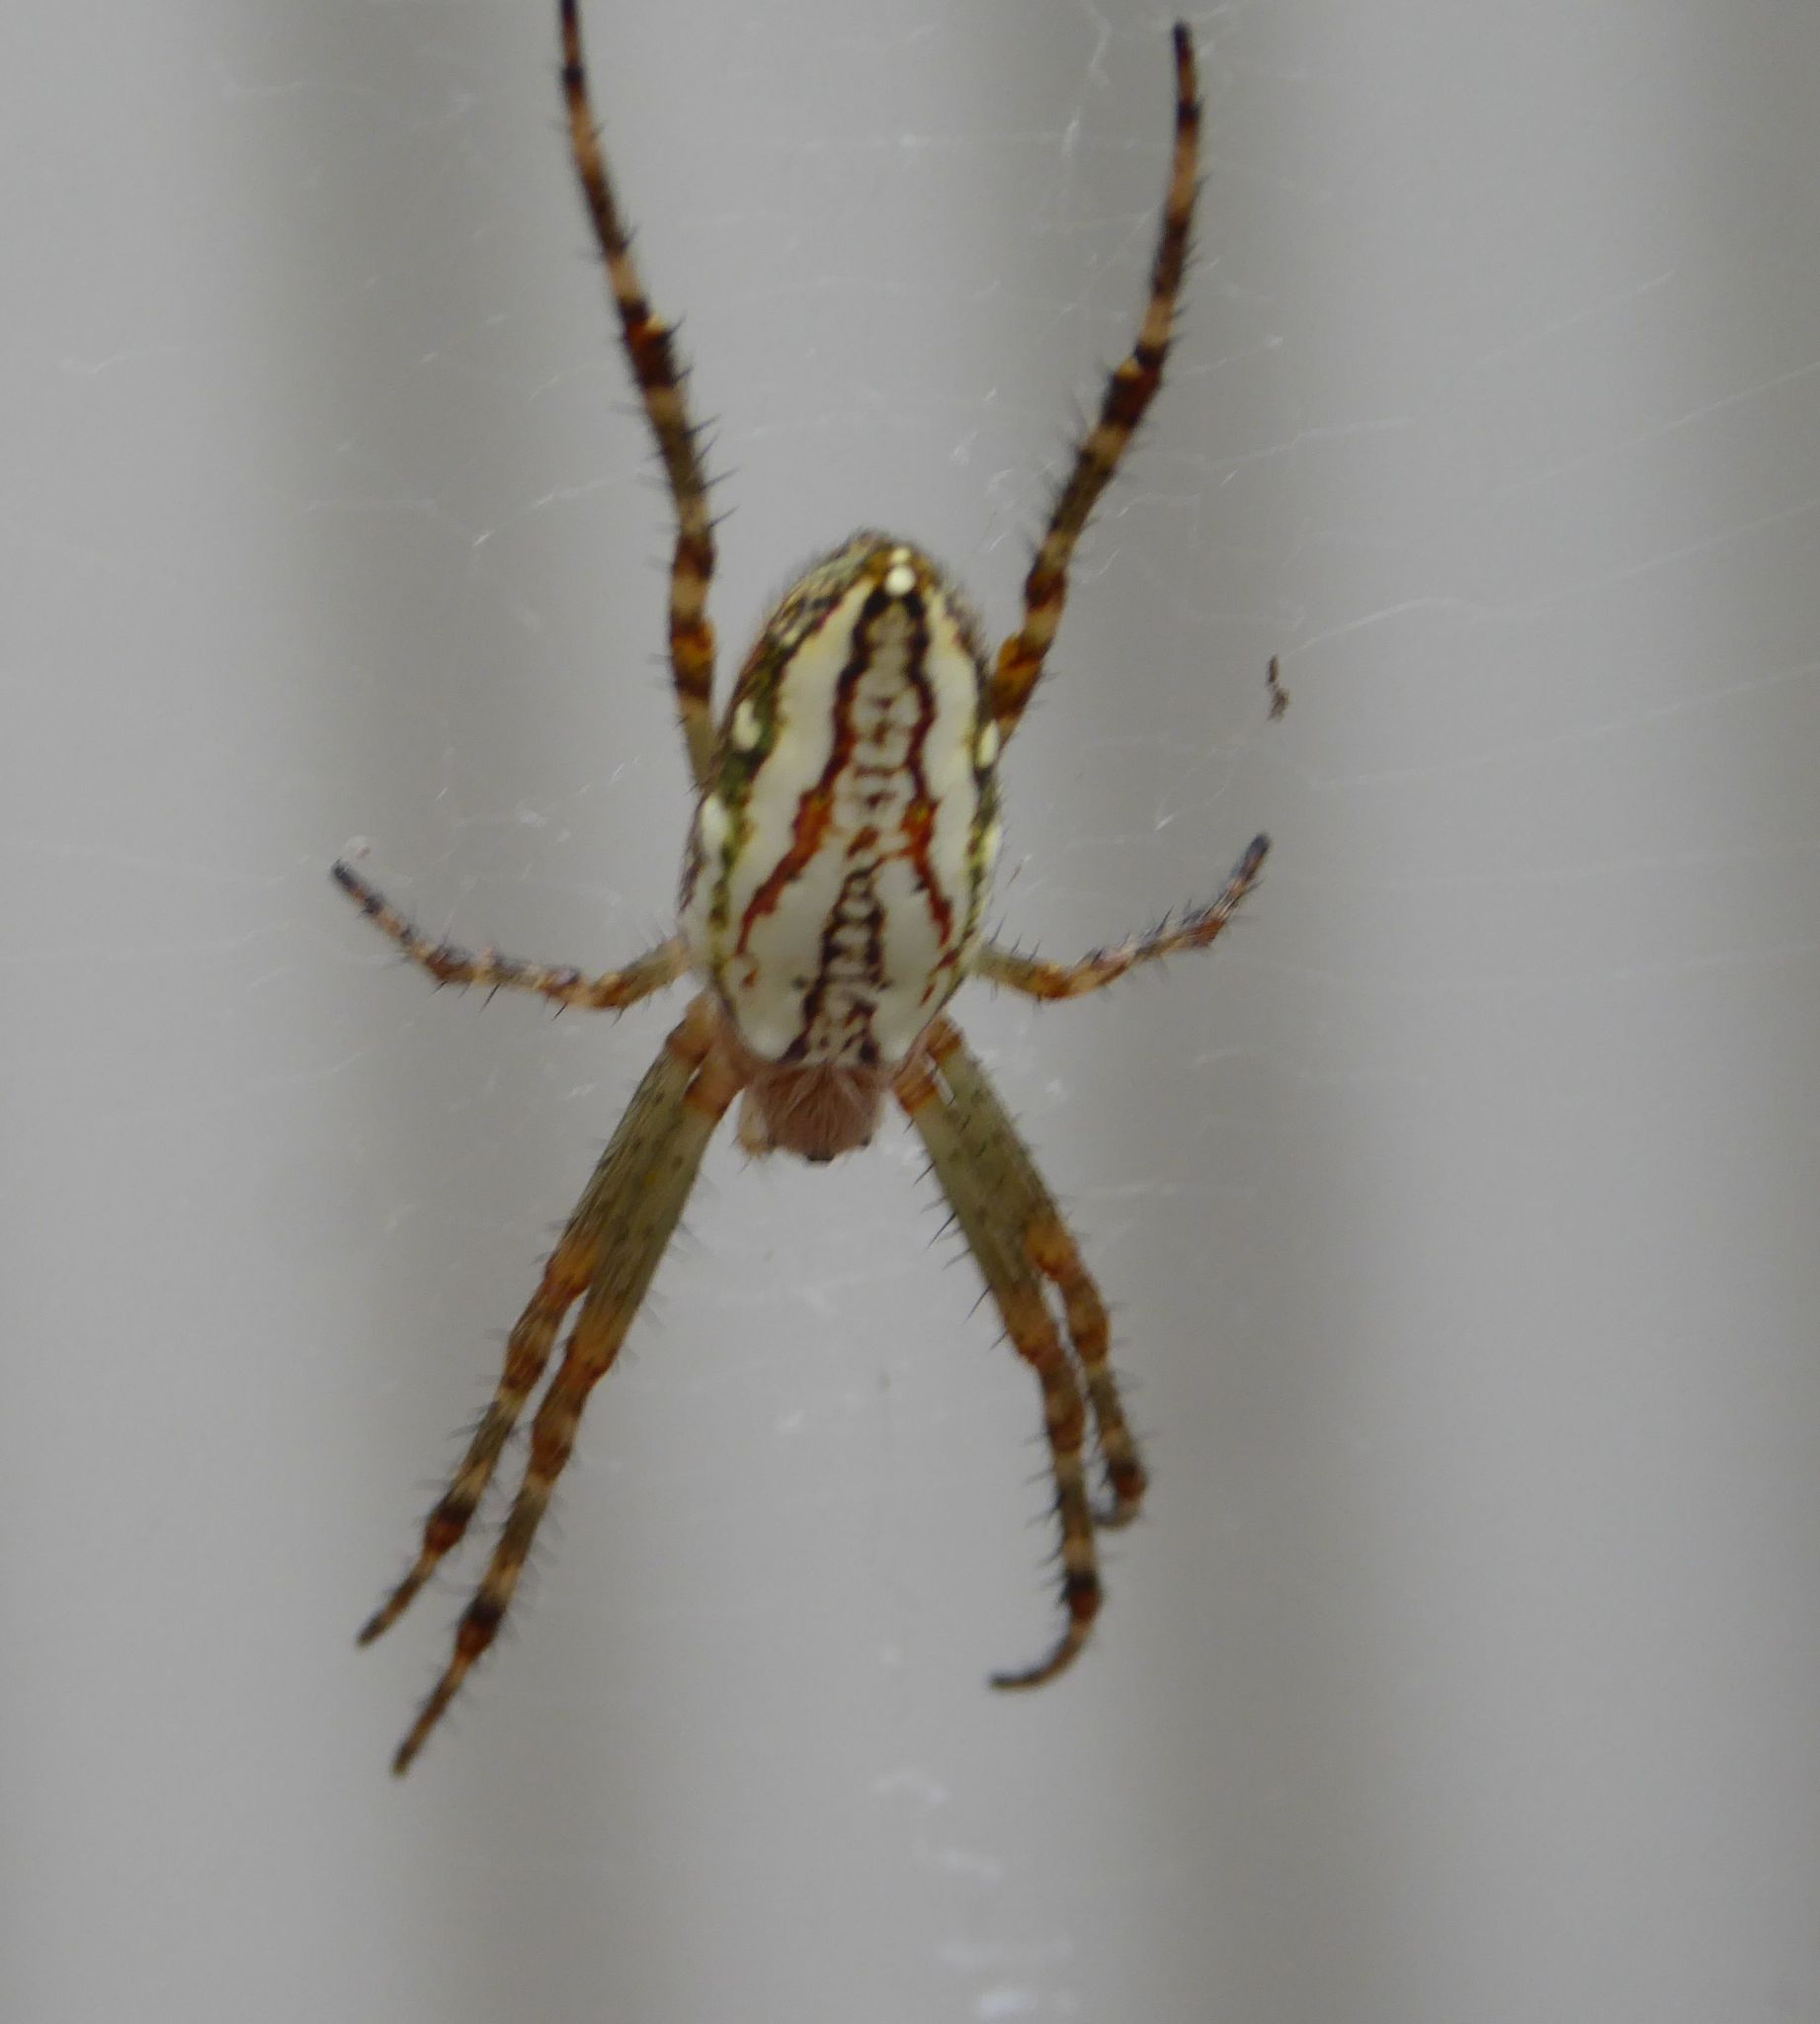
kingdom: Animalia
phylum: Arthropoda
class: Arachnida
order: Araneae
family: Araneidae
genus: Plebs
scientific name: Plebs bradleyi
